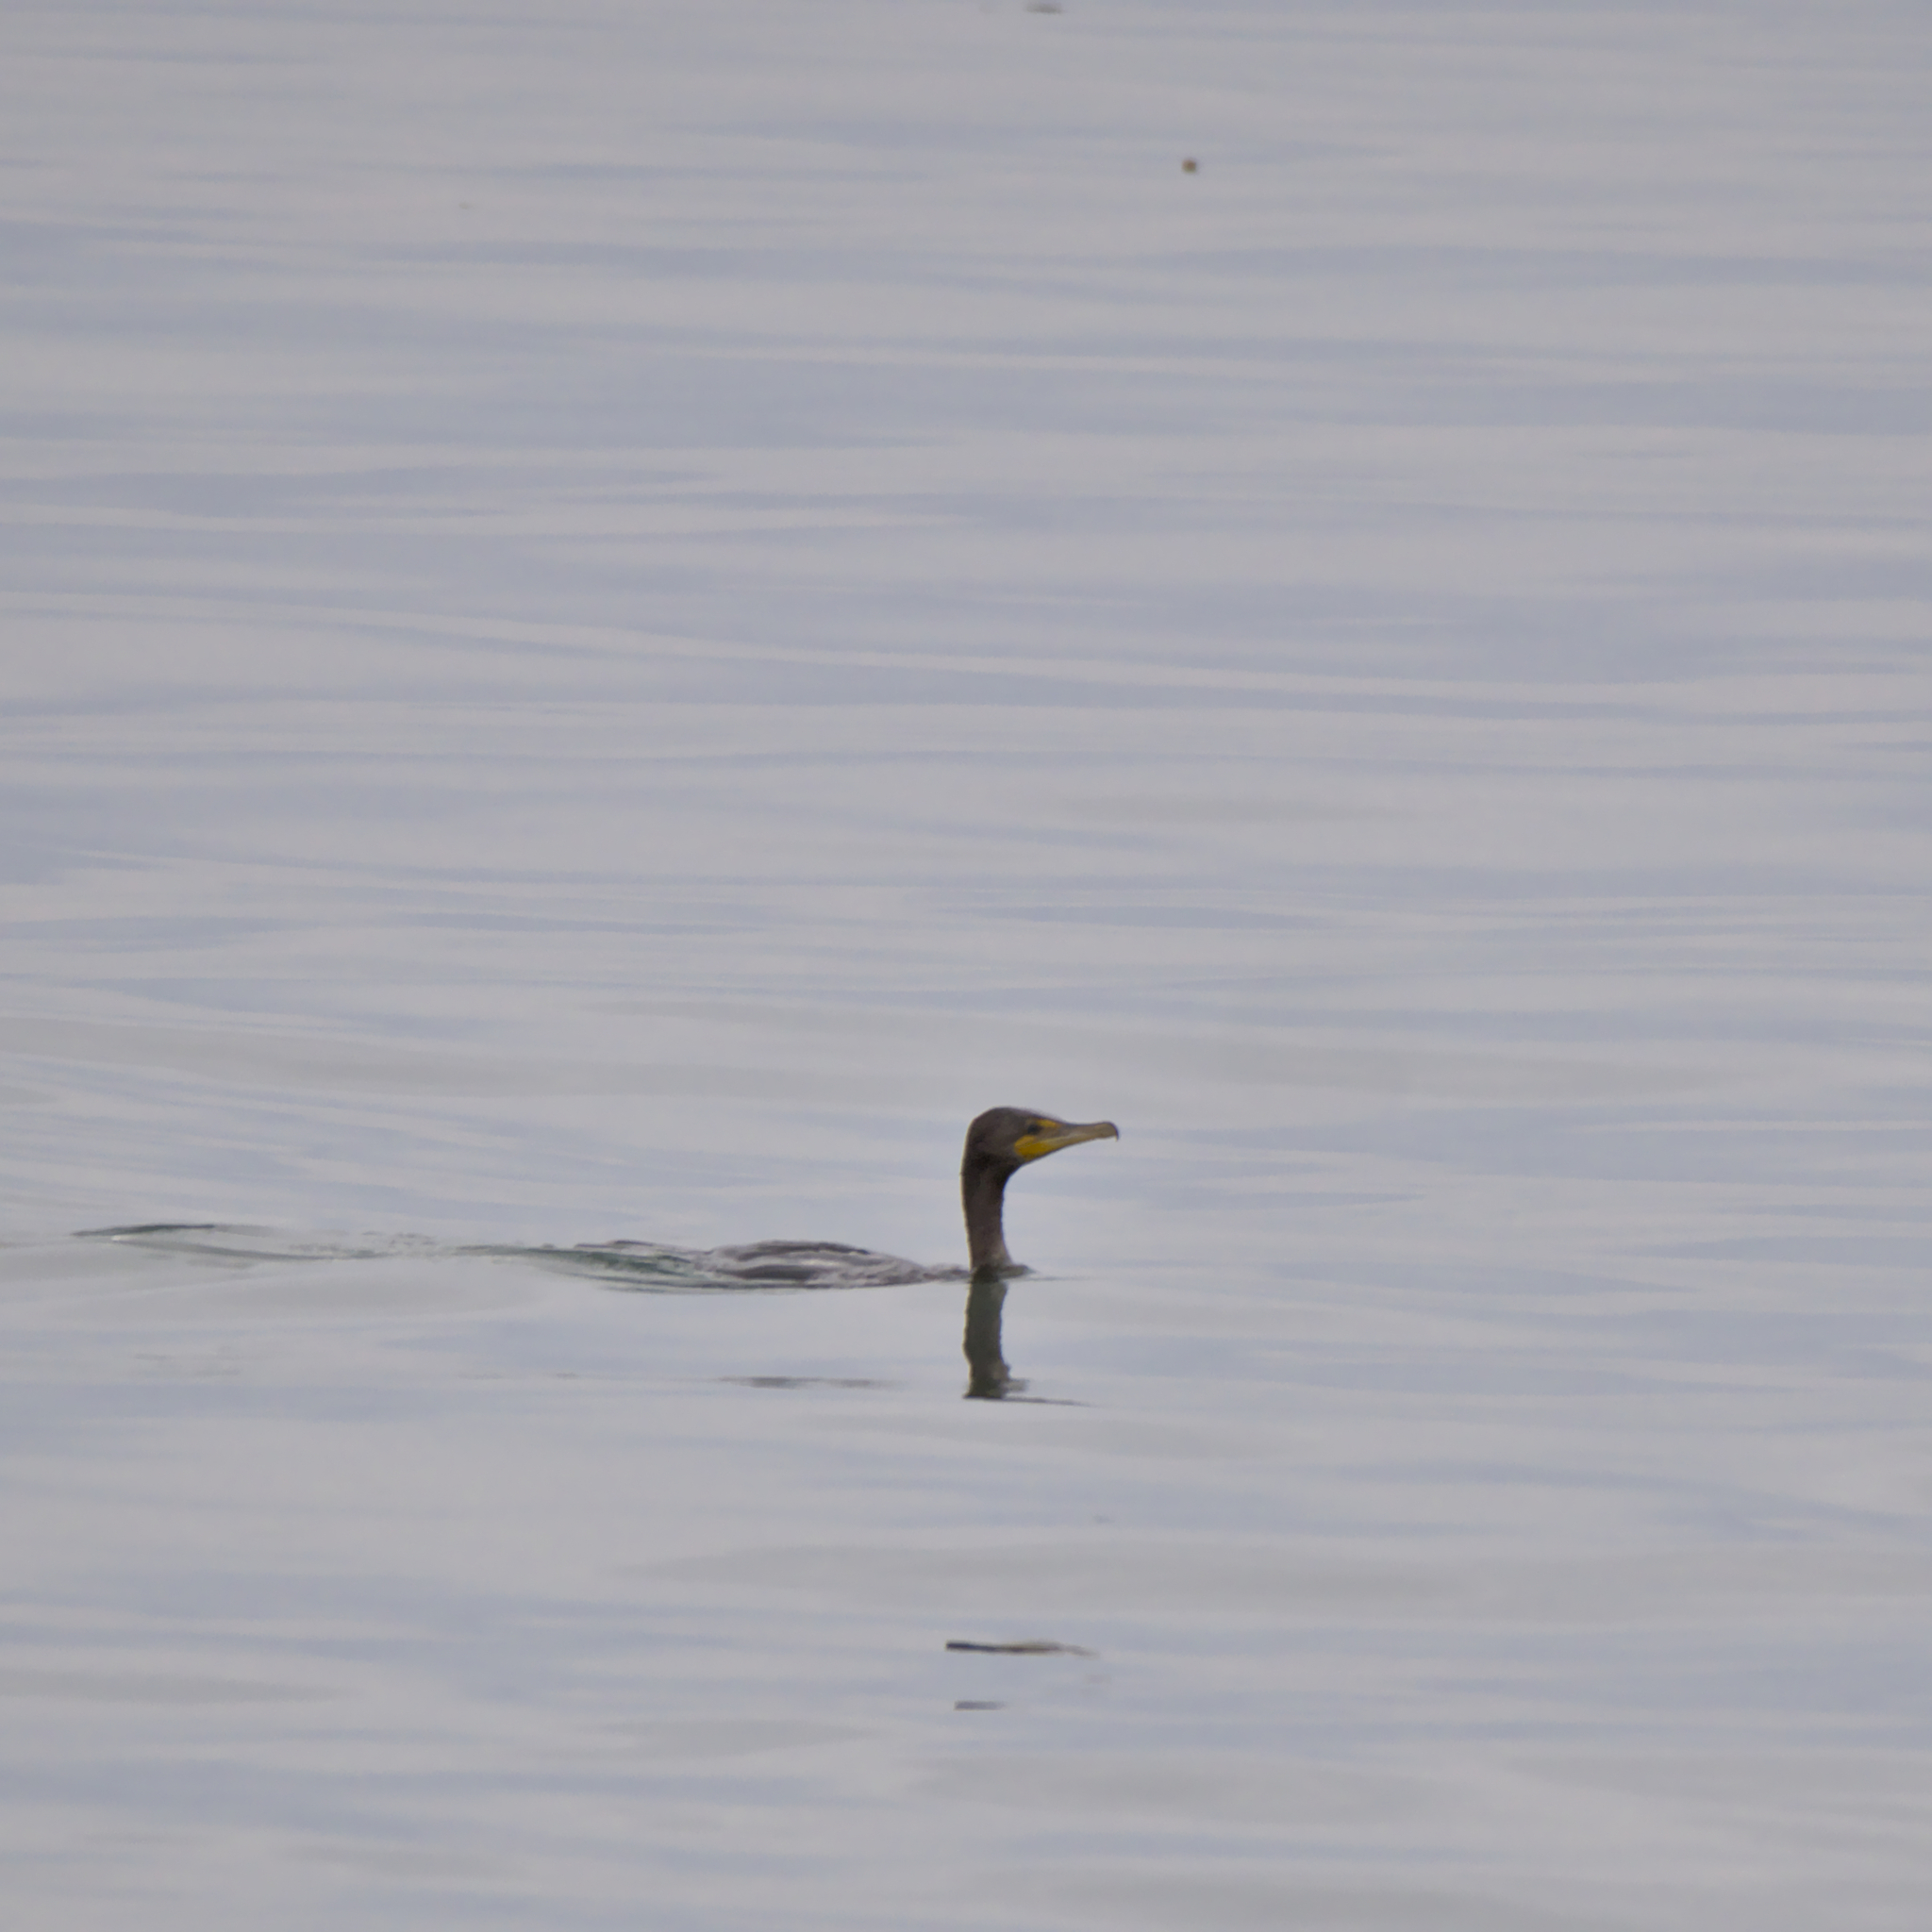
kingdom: Animalia
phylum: Chordata
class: Aves
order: Suliformes
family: Phalacrocoracidae
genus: Phalacrocorax
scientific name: Phalacrocorax auritus
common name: Double-crested cormorant
